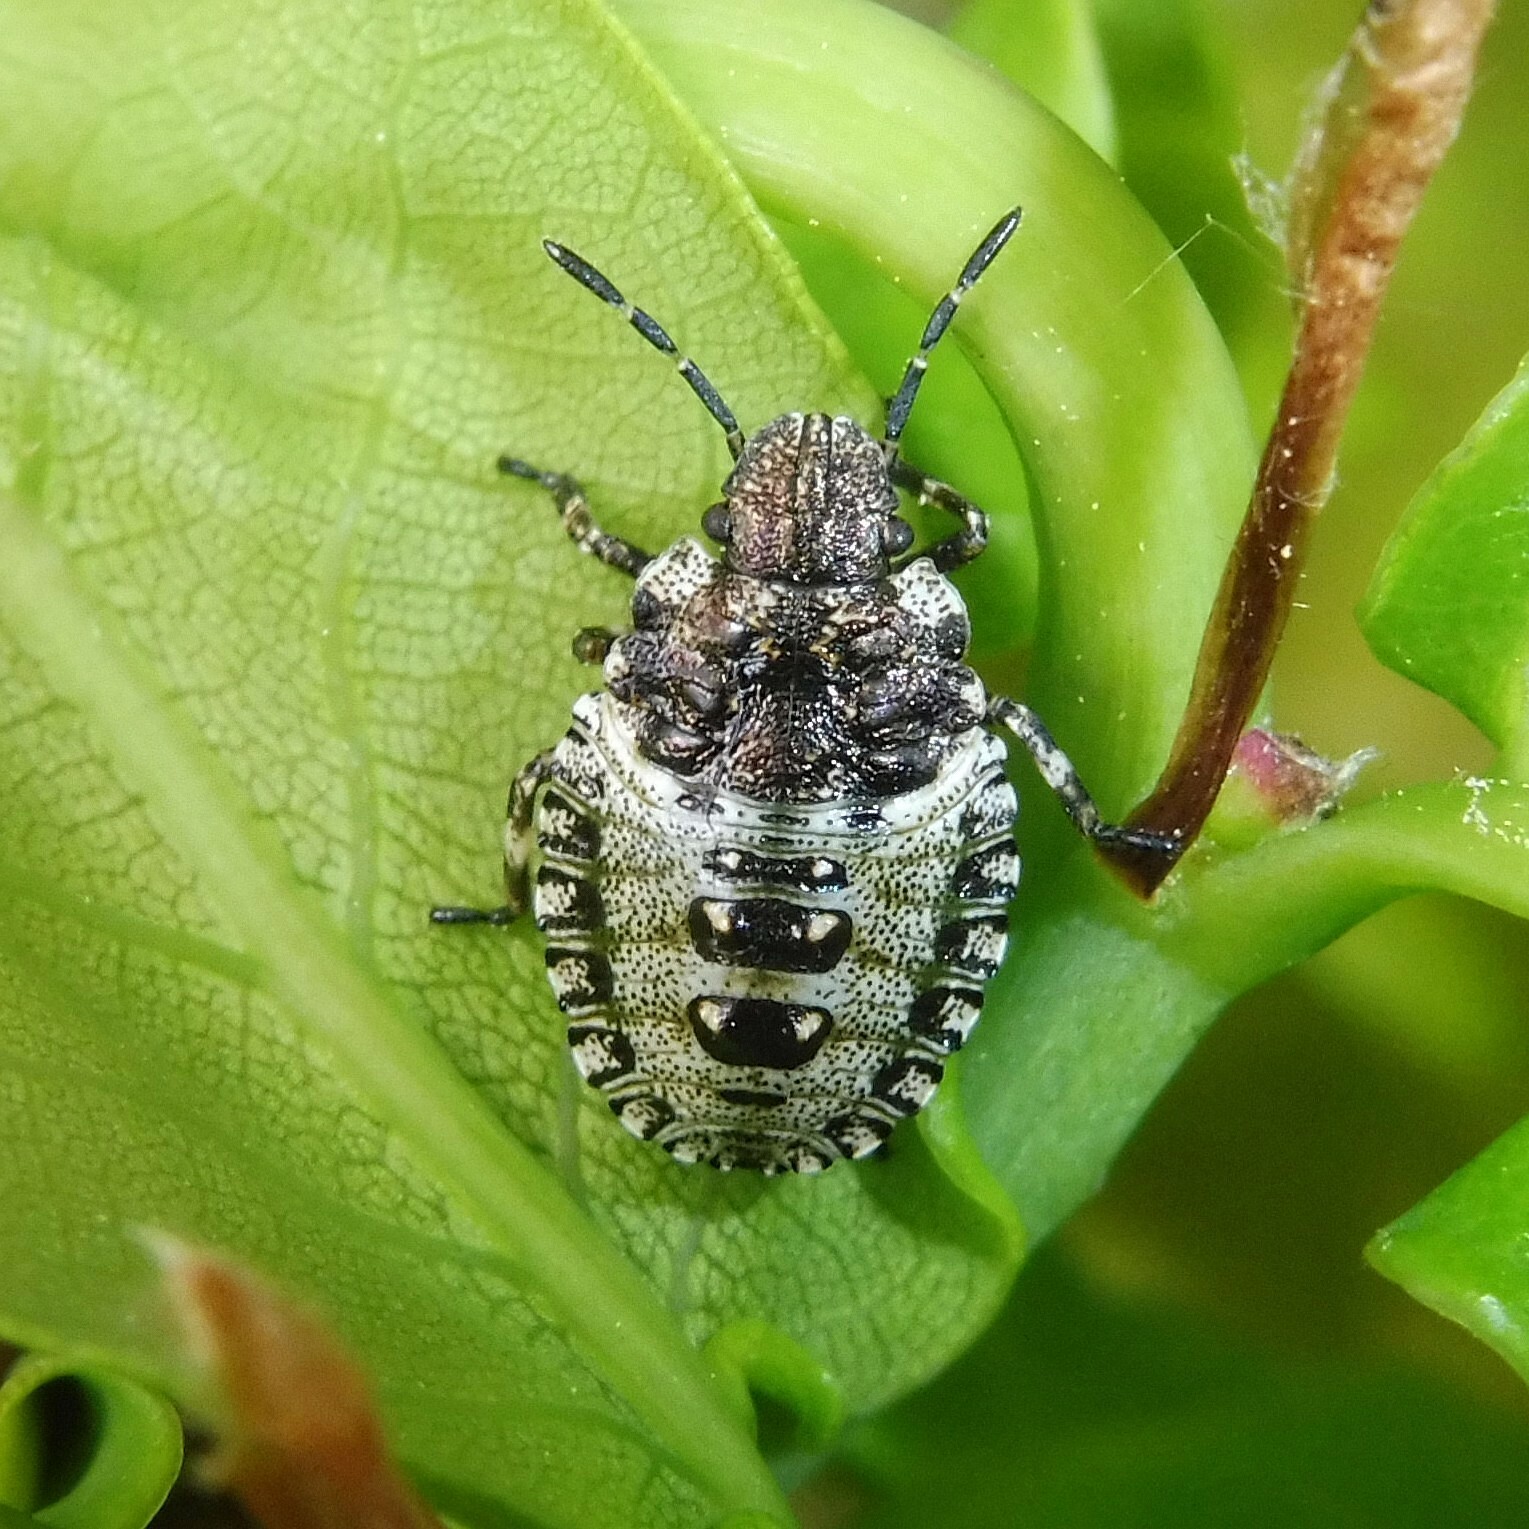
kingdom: Animalia
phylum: Arthropoda
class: Insecta
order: Hemiptera
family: Pentatomidae
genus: Pentatoma
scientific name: Pentatoma rufipes
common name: Forest bug
